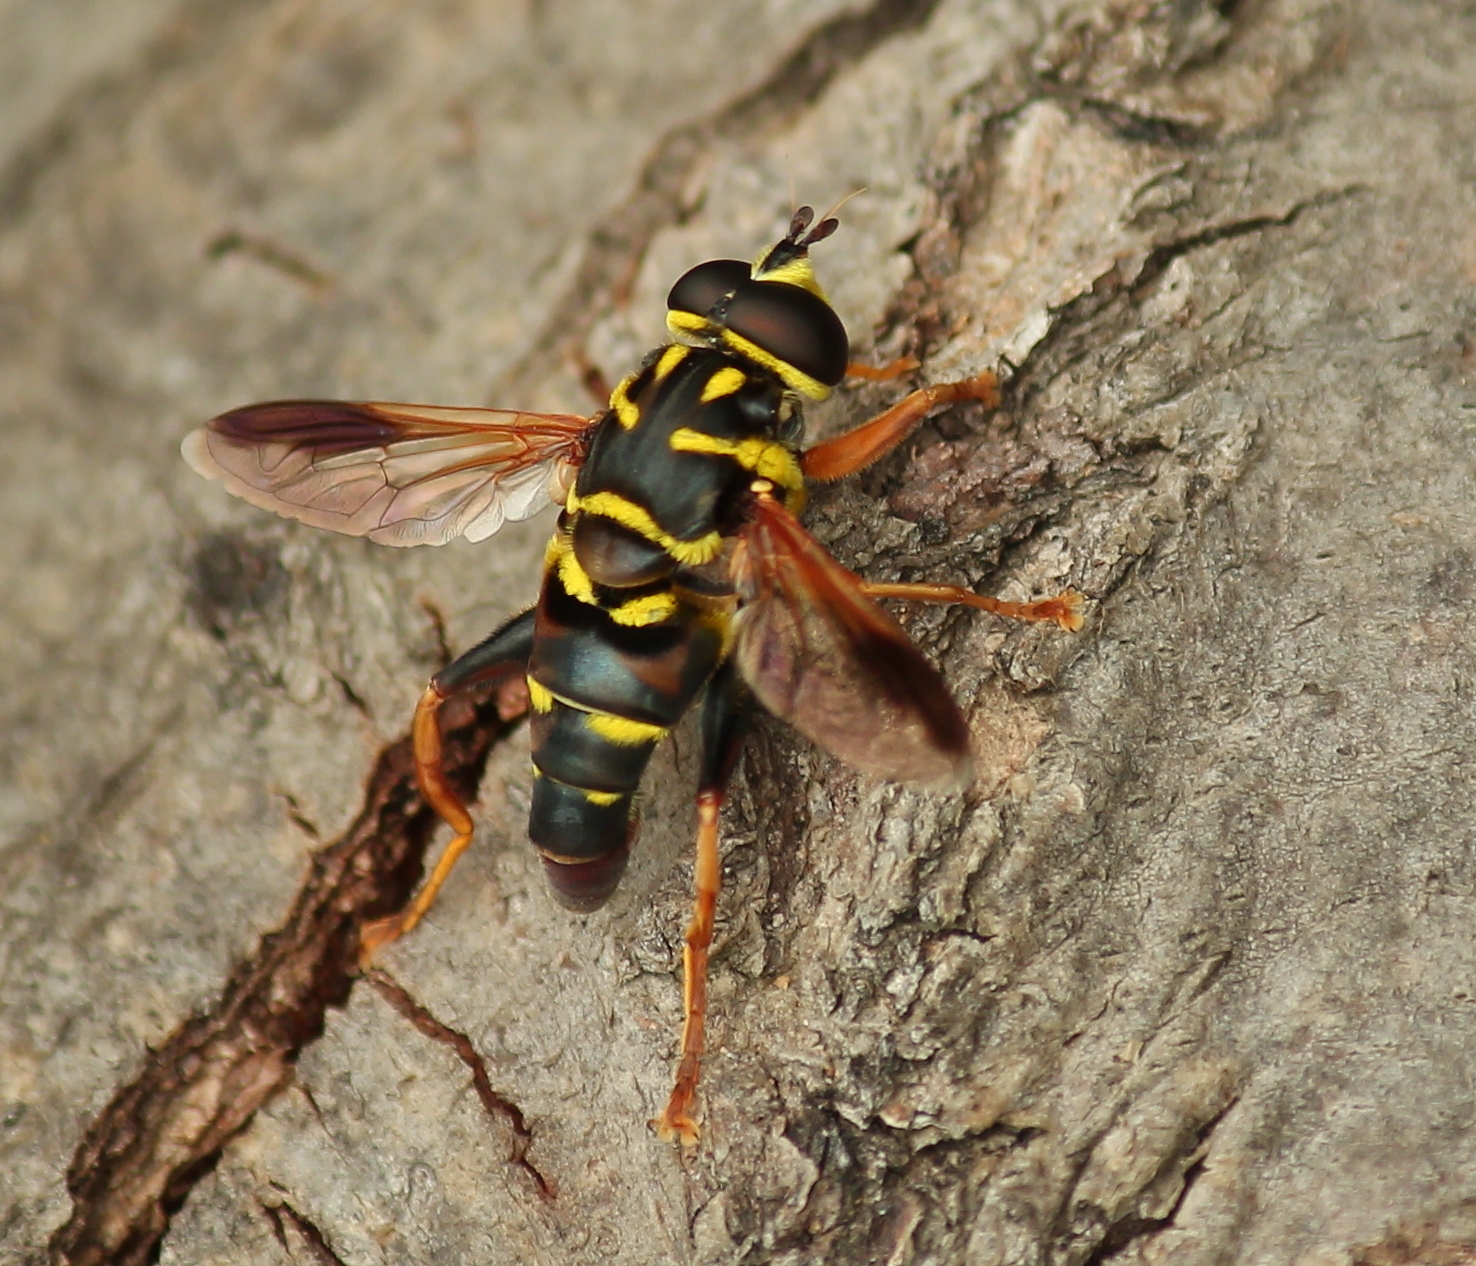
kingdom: Animalia
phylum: Arthropoda
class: Insecta
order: Diptera
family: Syrphidae
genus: Meromacrus
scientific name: Meromacrus acutus
